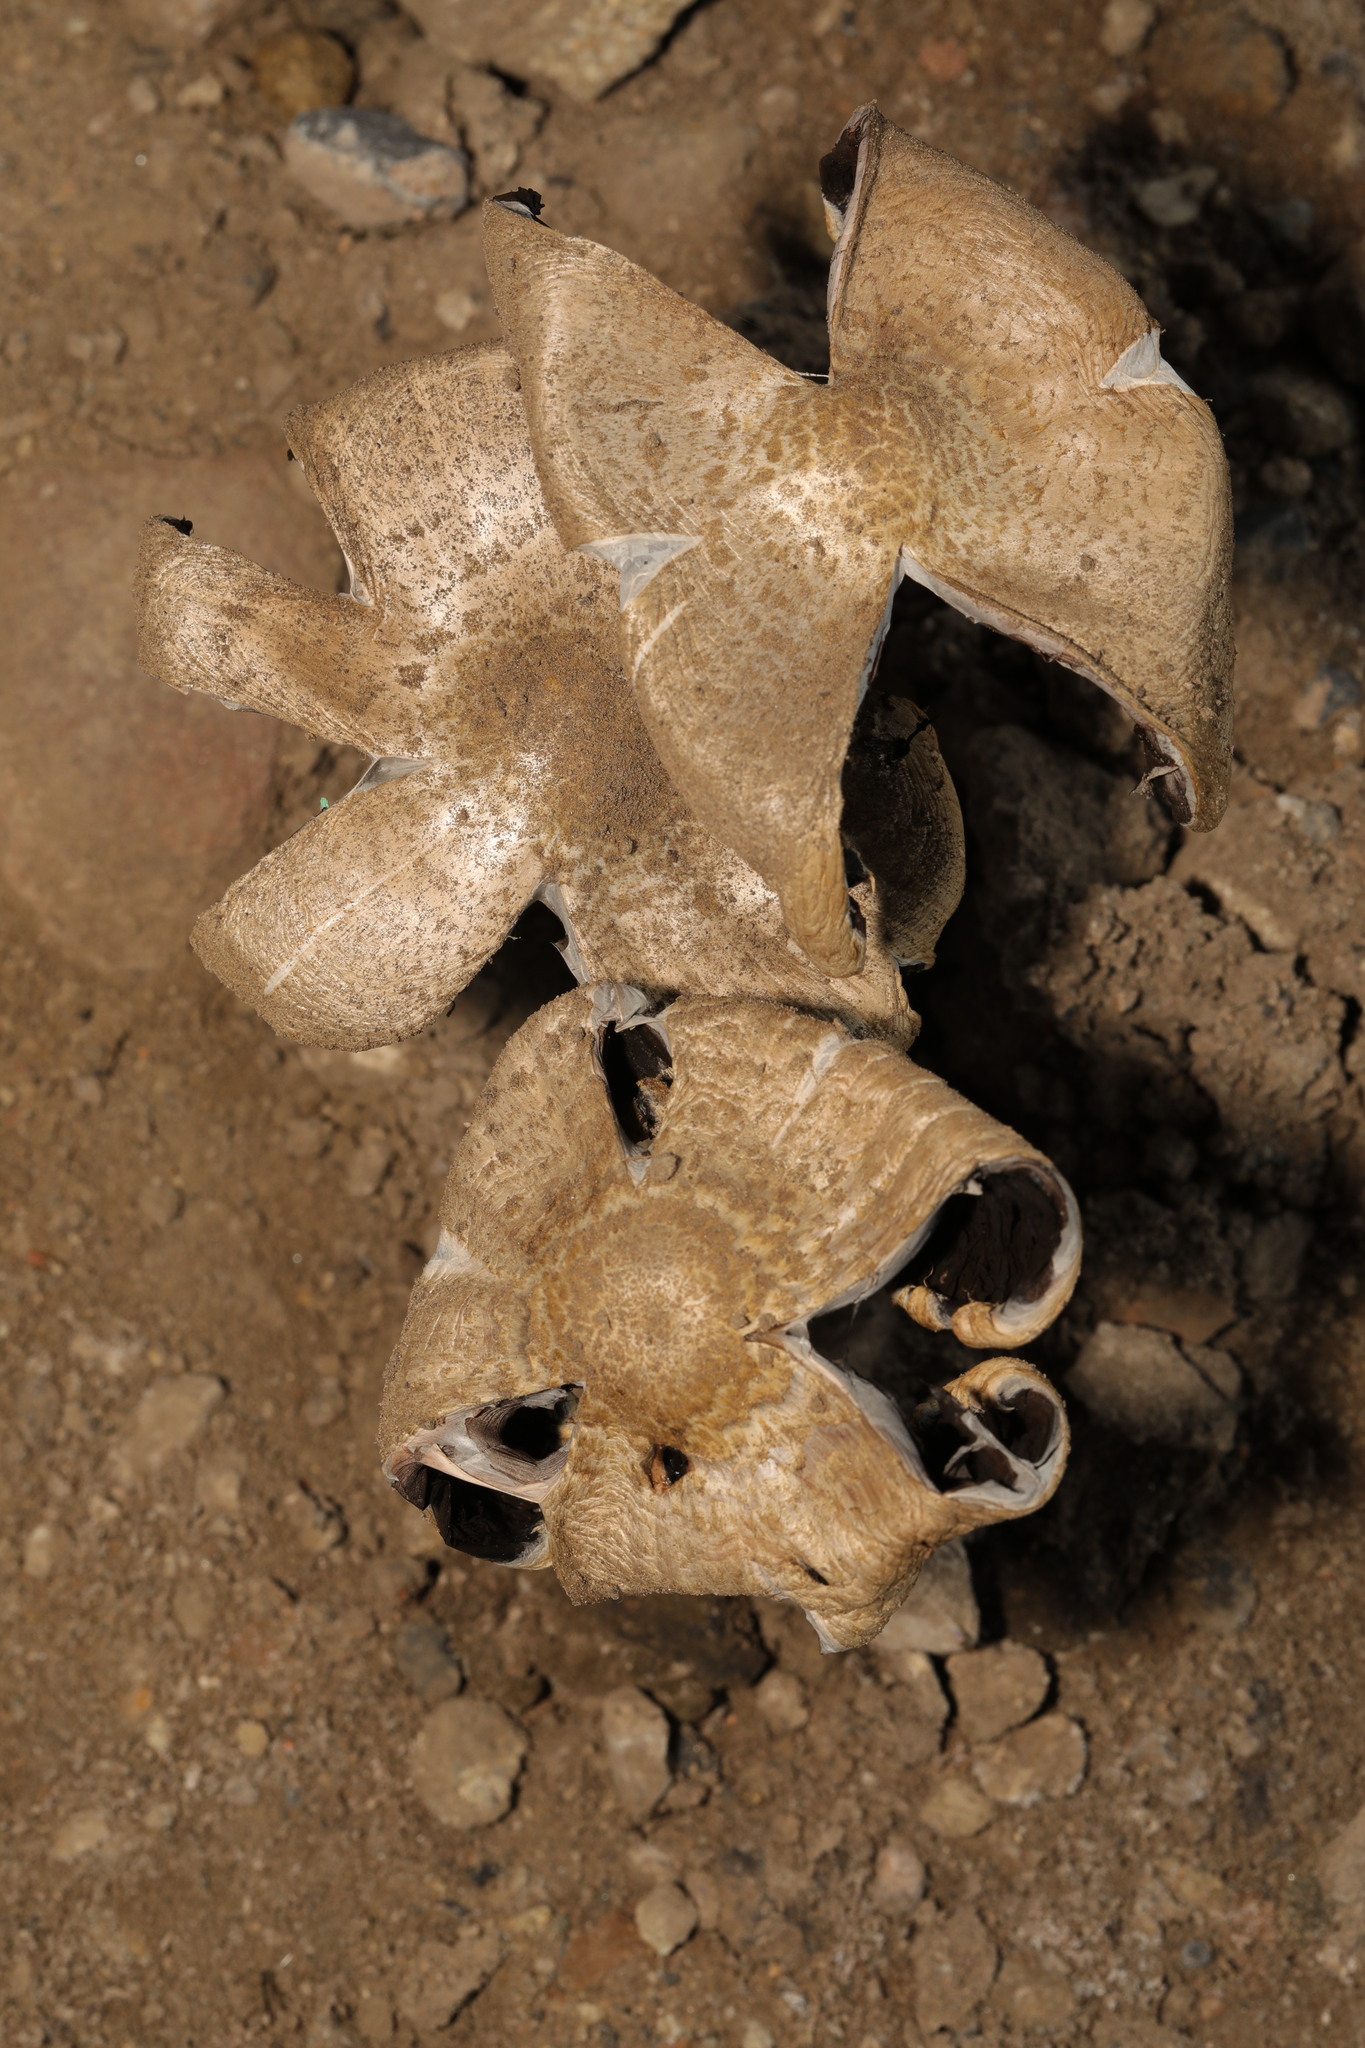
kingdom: Fungi
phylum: Basidiomycota
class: Agaricomycetes
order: Agaricales
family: Psathyrellaceae
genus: Coprinopsis
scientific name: Coprinopsis romagnesiana
